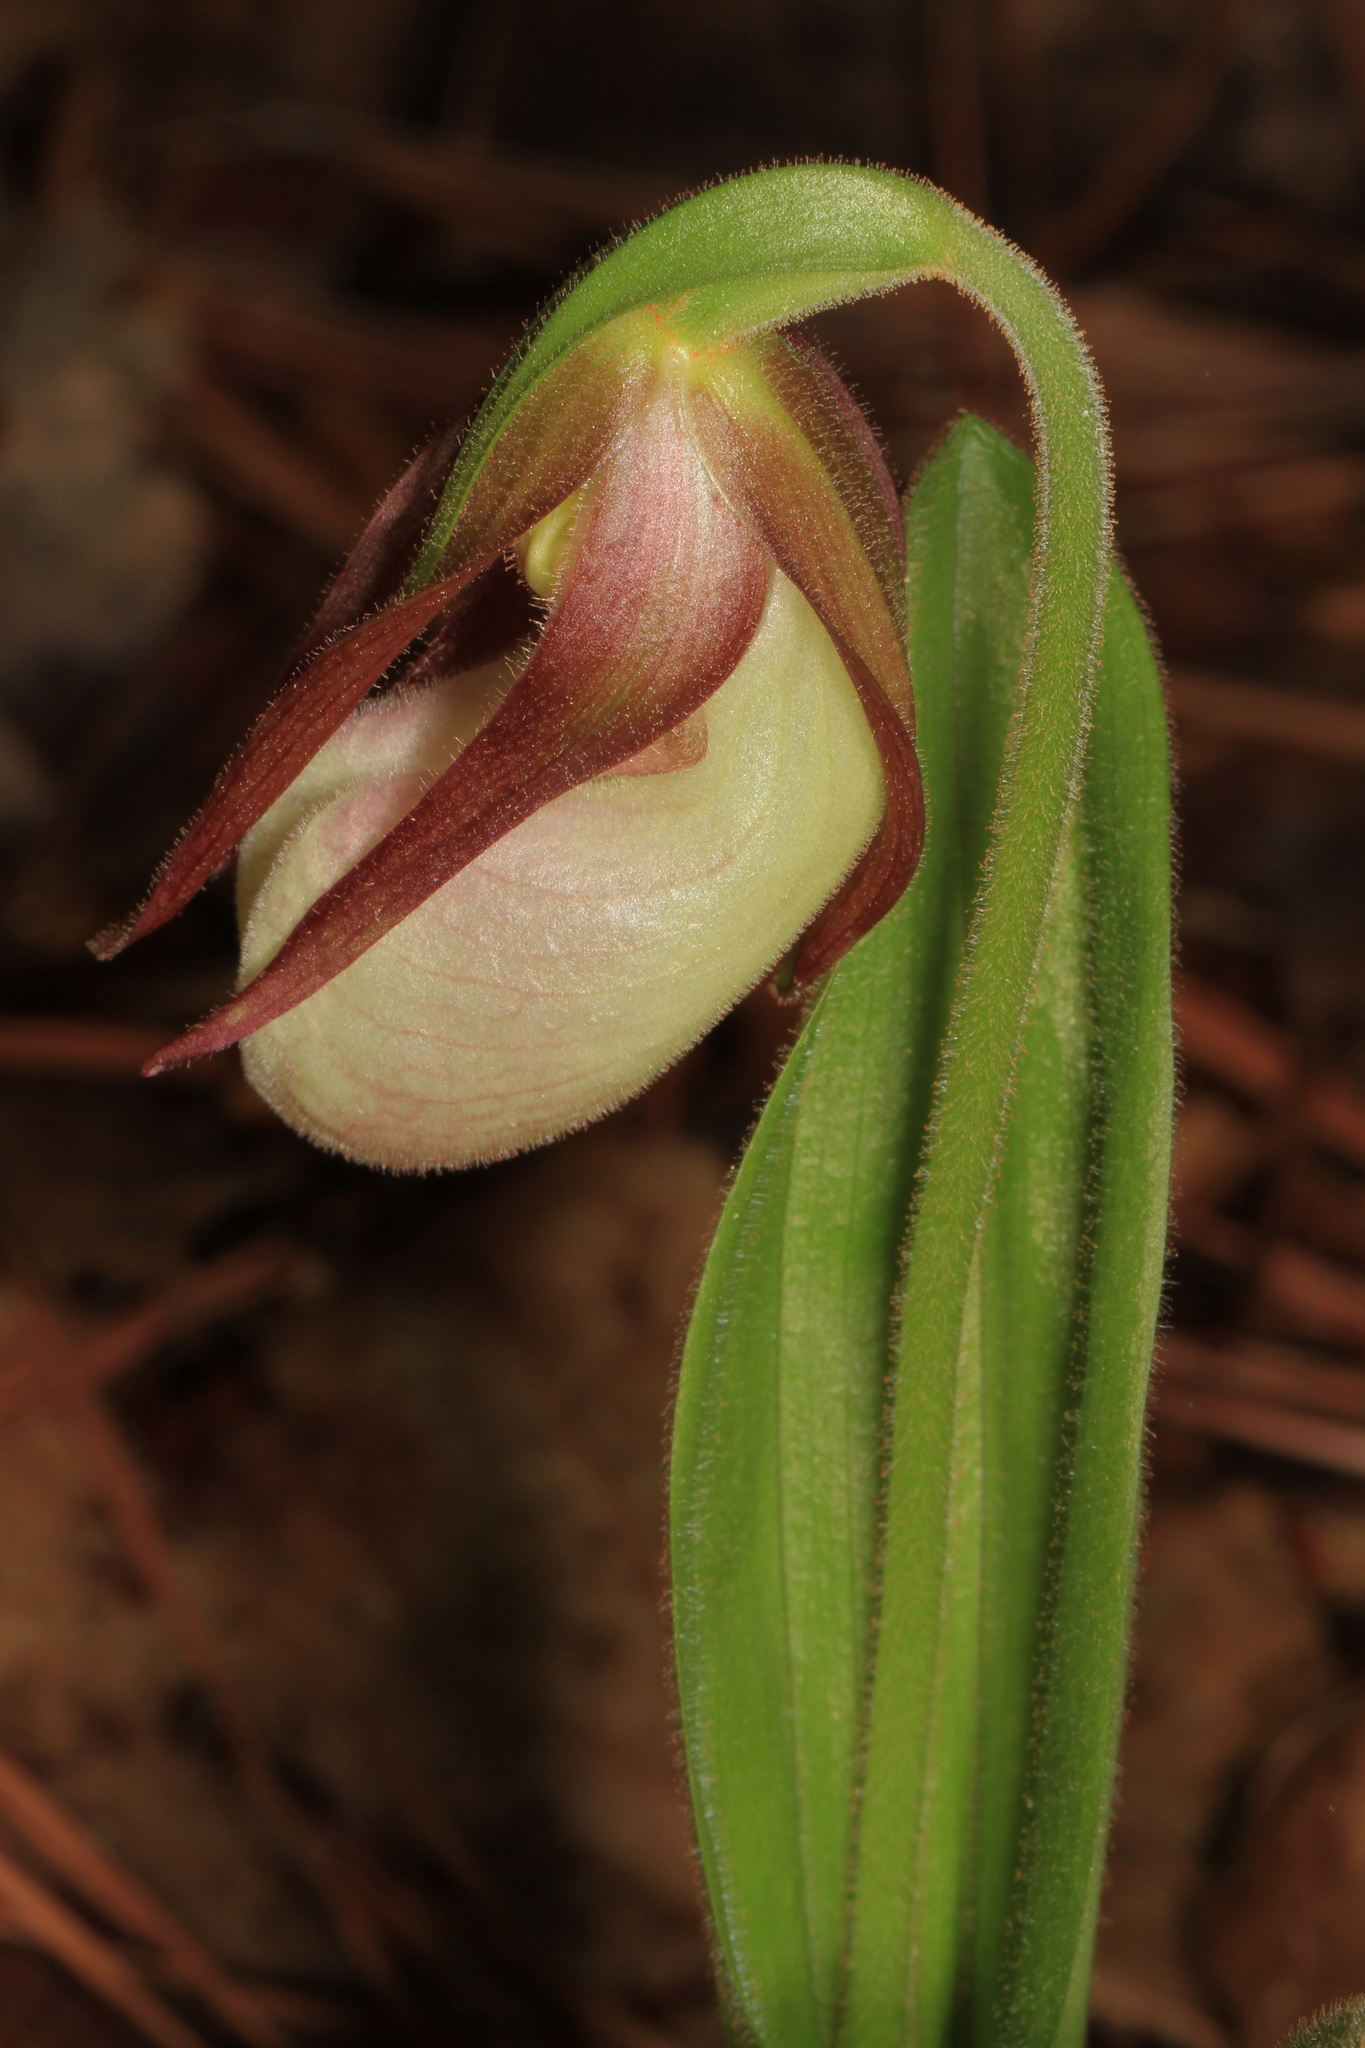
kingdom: Plantae
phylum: Tracheophyta
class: Liliopsida
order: Asparagales
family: Orchidaceae
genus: Cypripedium
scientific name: Cypripedium acaule
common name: Pink lady's-slipper
